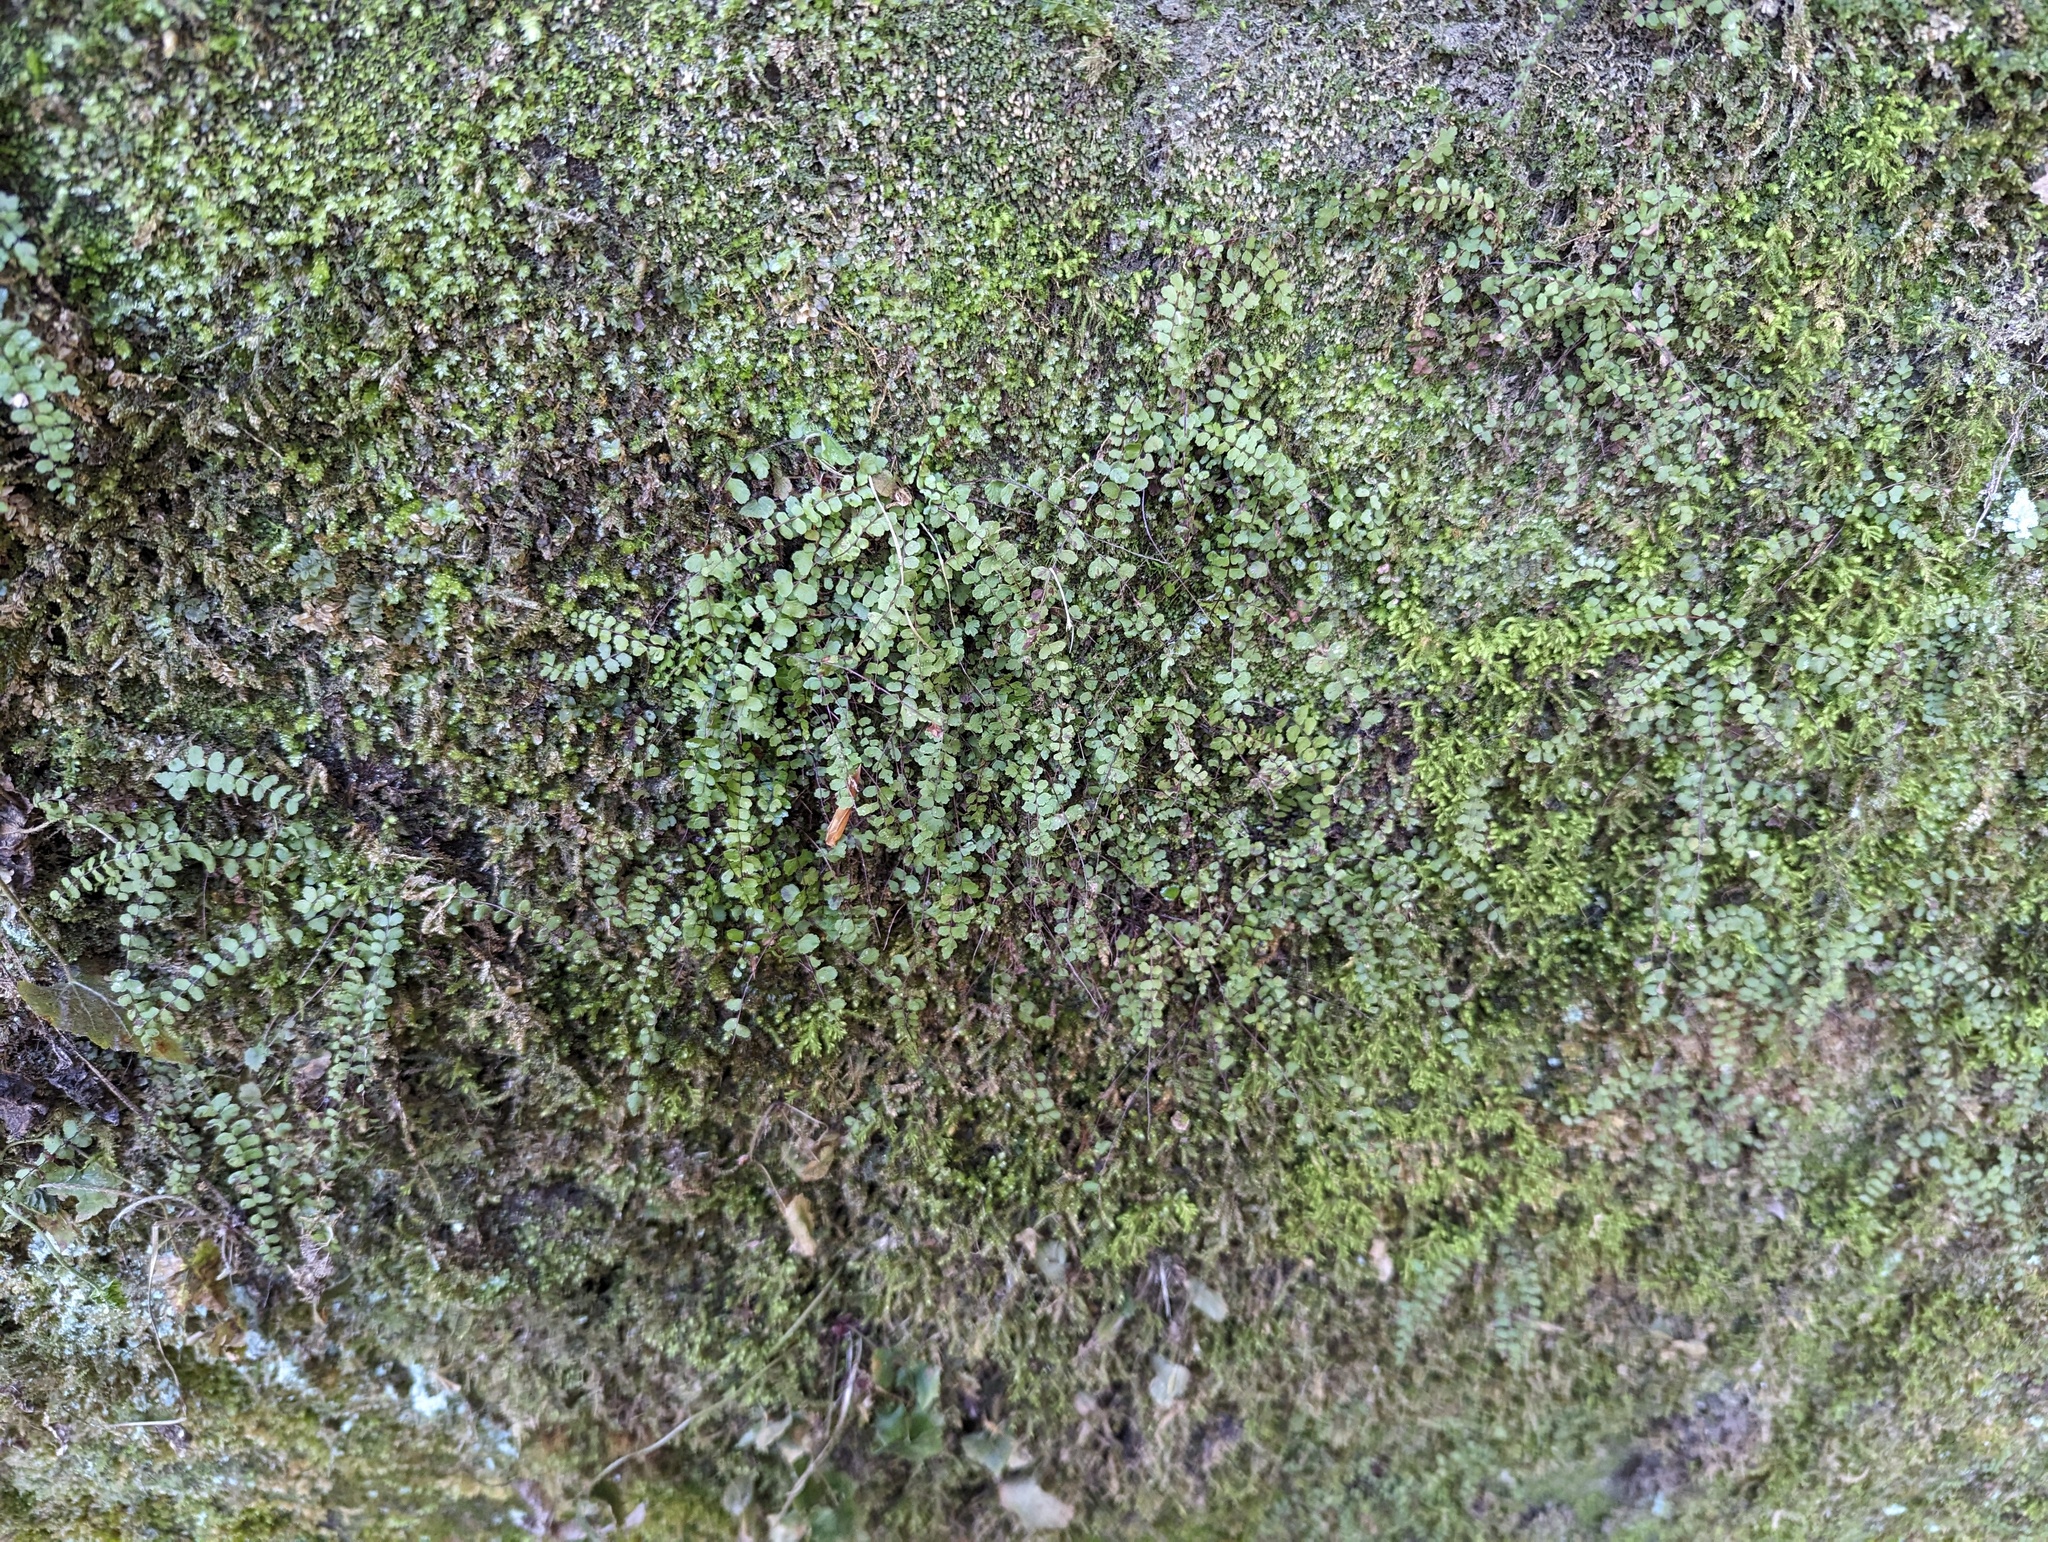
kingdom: Plantae
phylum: Tracheophyta
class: Polypodiopsida
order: Polypodiales
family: Aspleniaceae
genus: Asplenium
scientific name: Asplenium trichomanes
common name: Maidenhair spleenwort
